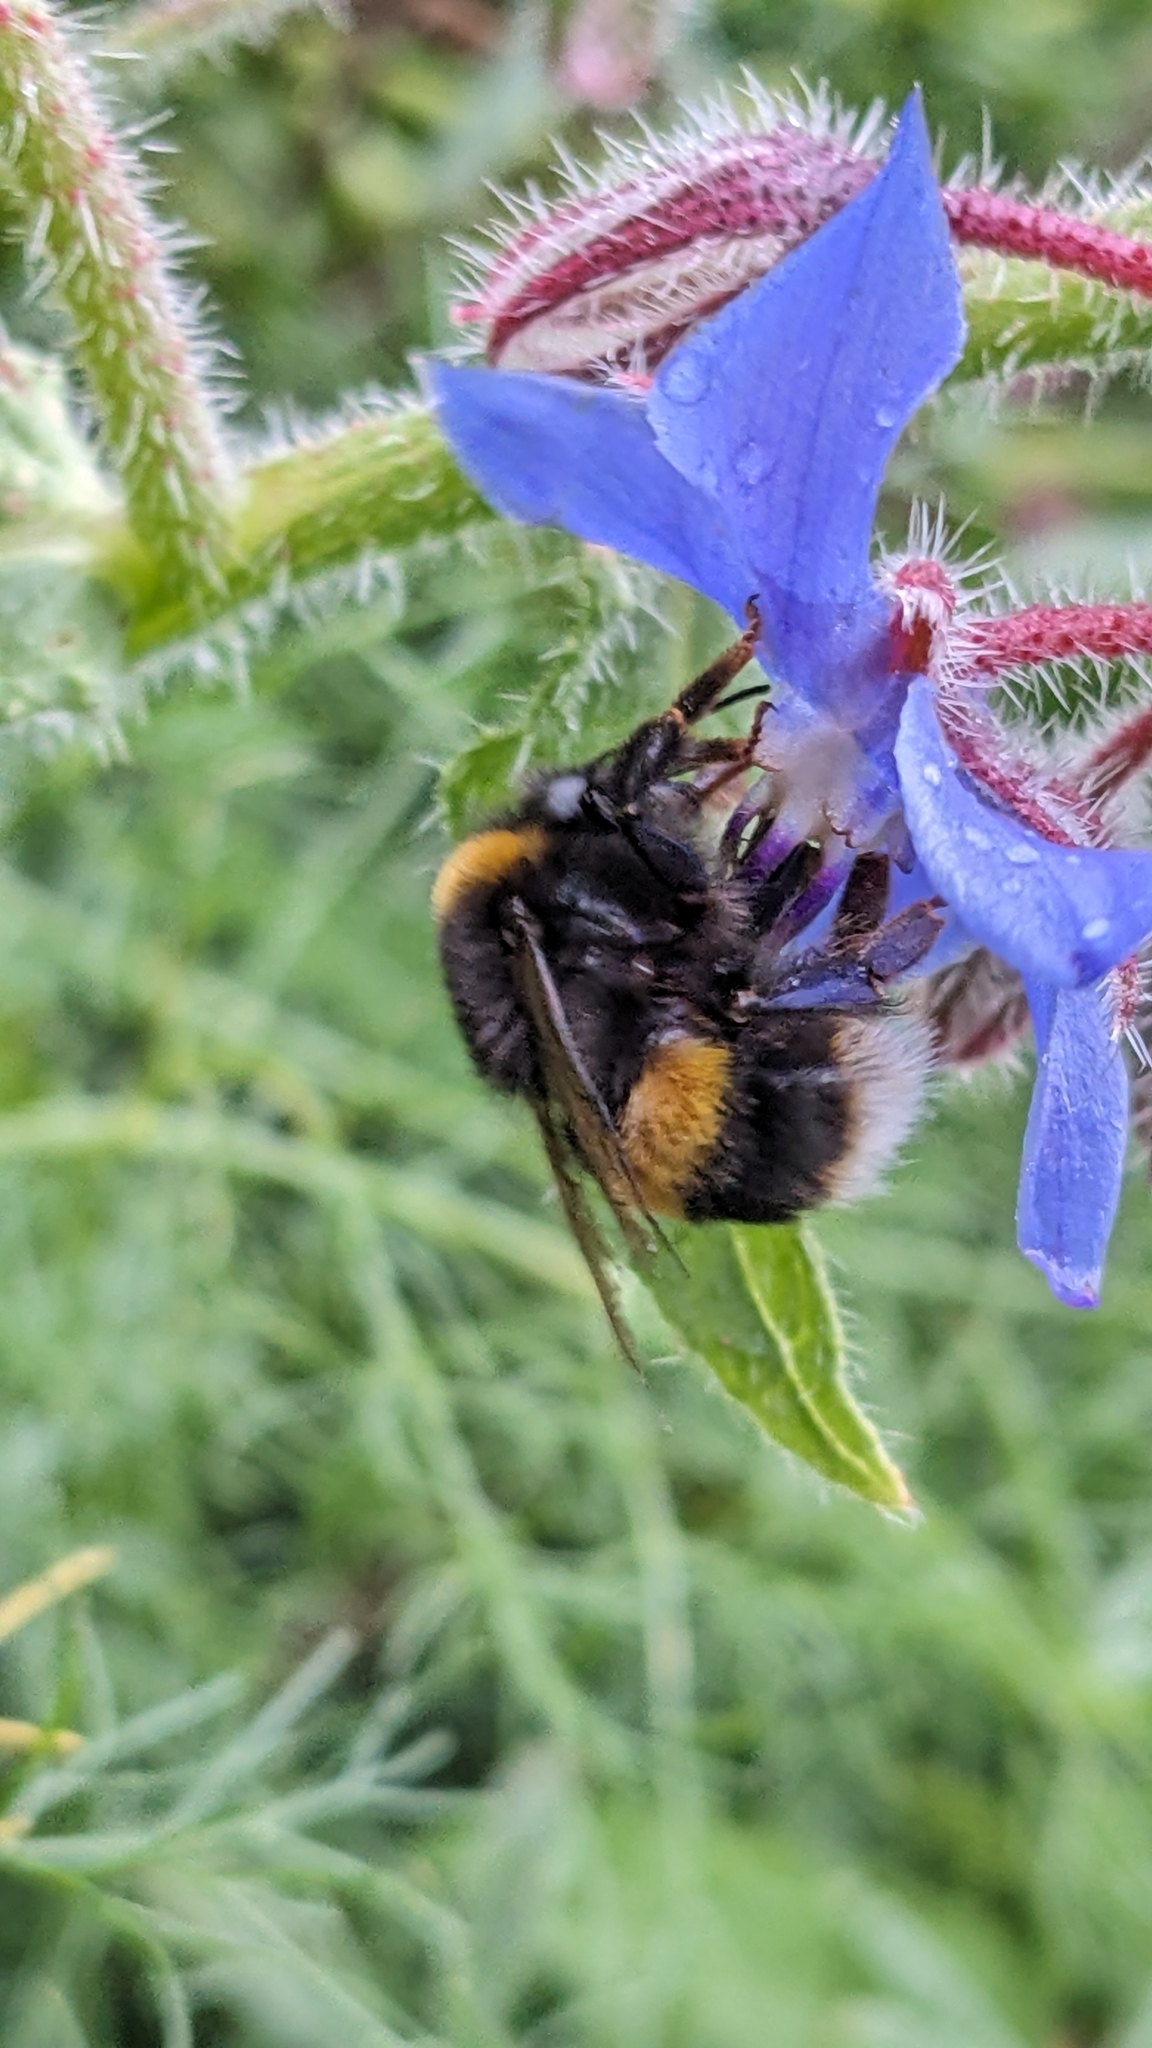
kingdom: Animalia
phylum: Arthropoda
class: Insecta
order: Hymenoptera
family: Apidae
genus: Bombus
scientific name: Bombus terrestris
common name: Buff-tailed bumblebee
